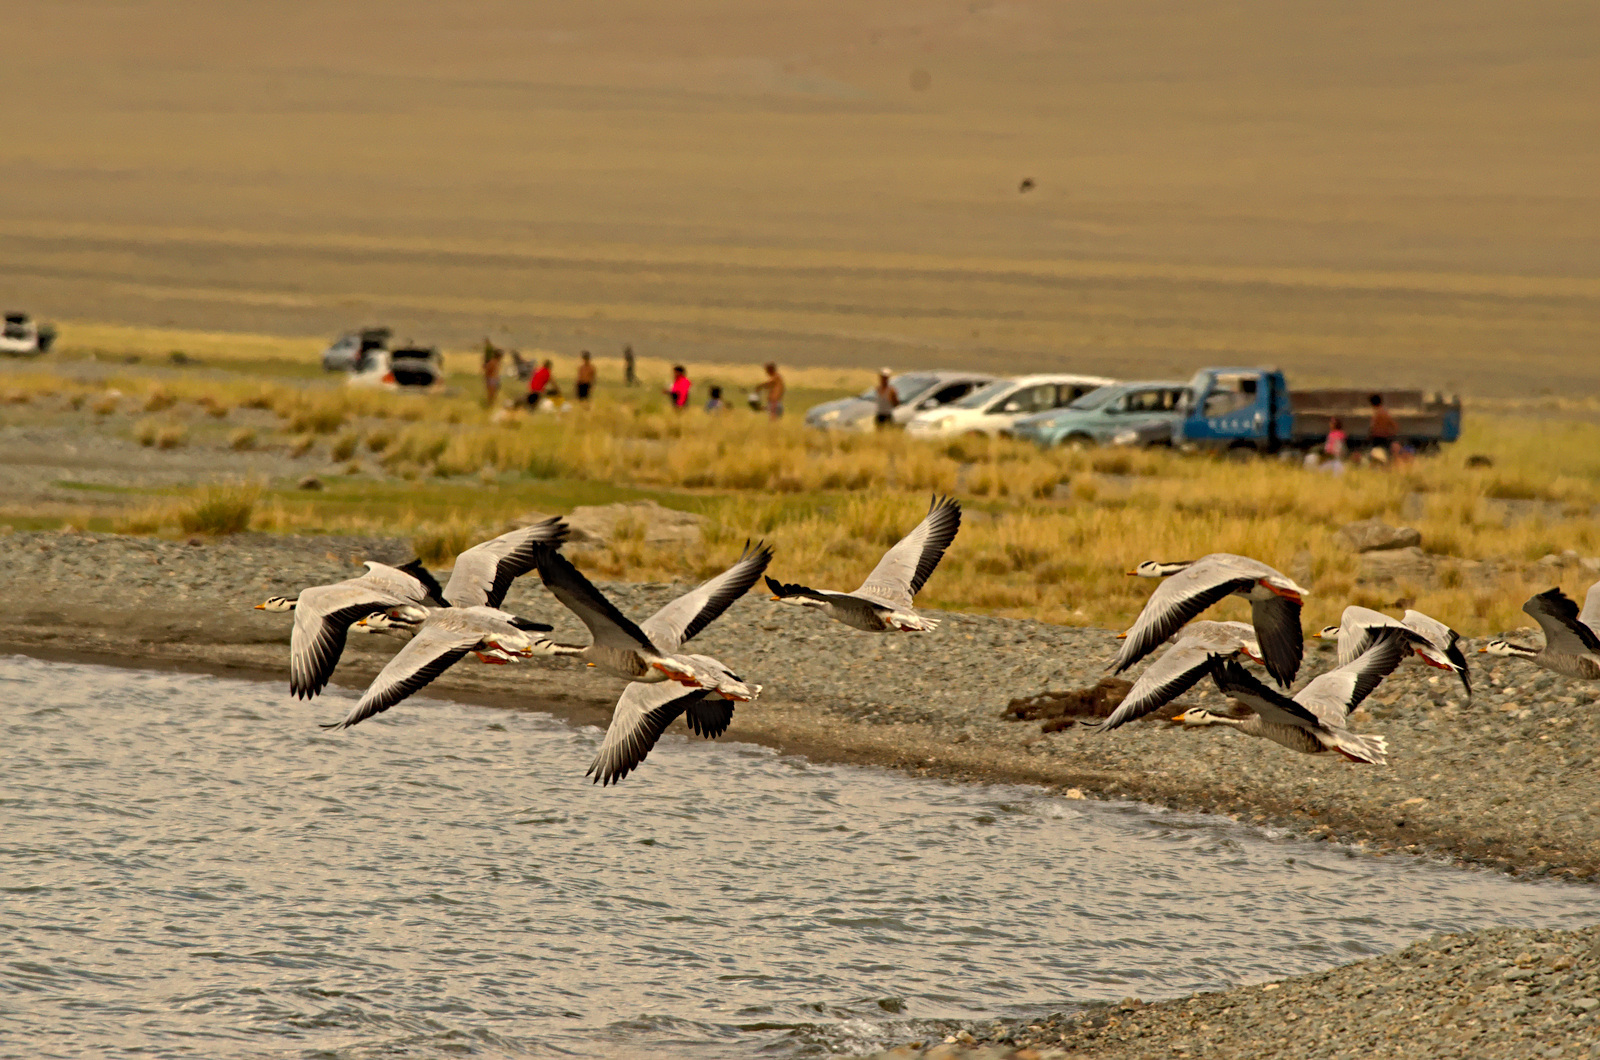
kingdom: Animalia
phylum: Chordata
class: Aves
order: Anseriformes
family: Anatidae
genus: Anser
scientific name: Anser indicus
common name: Bar-headed goose
